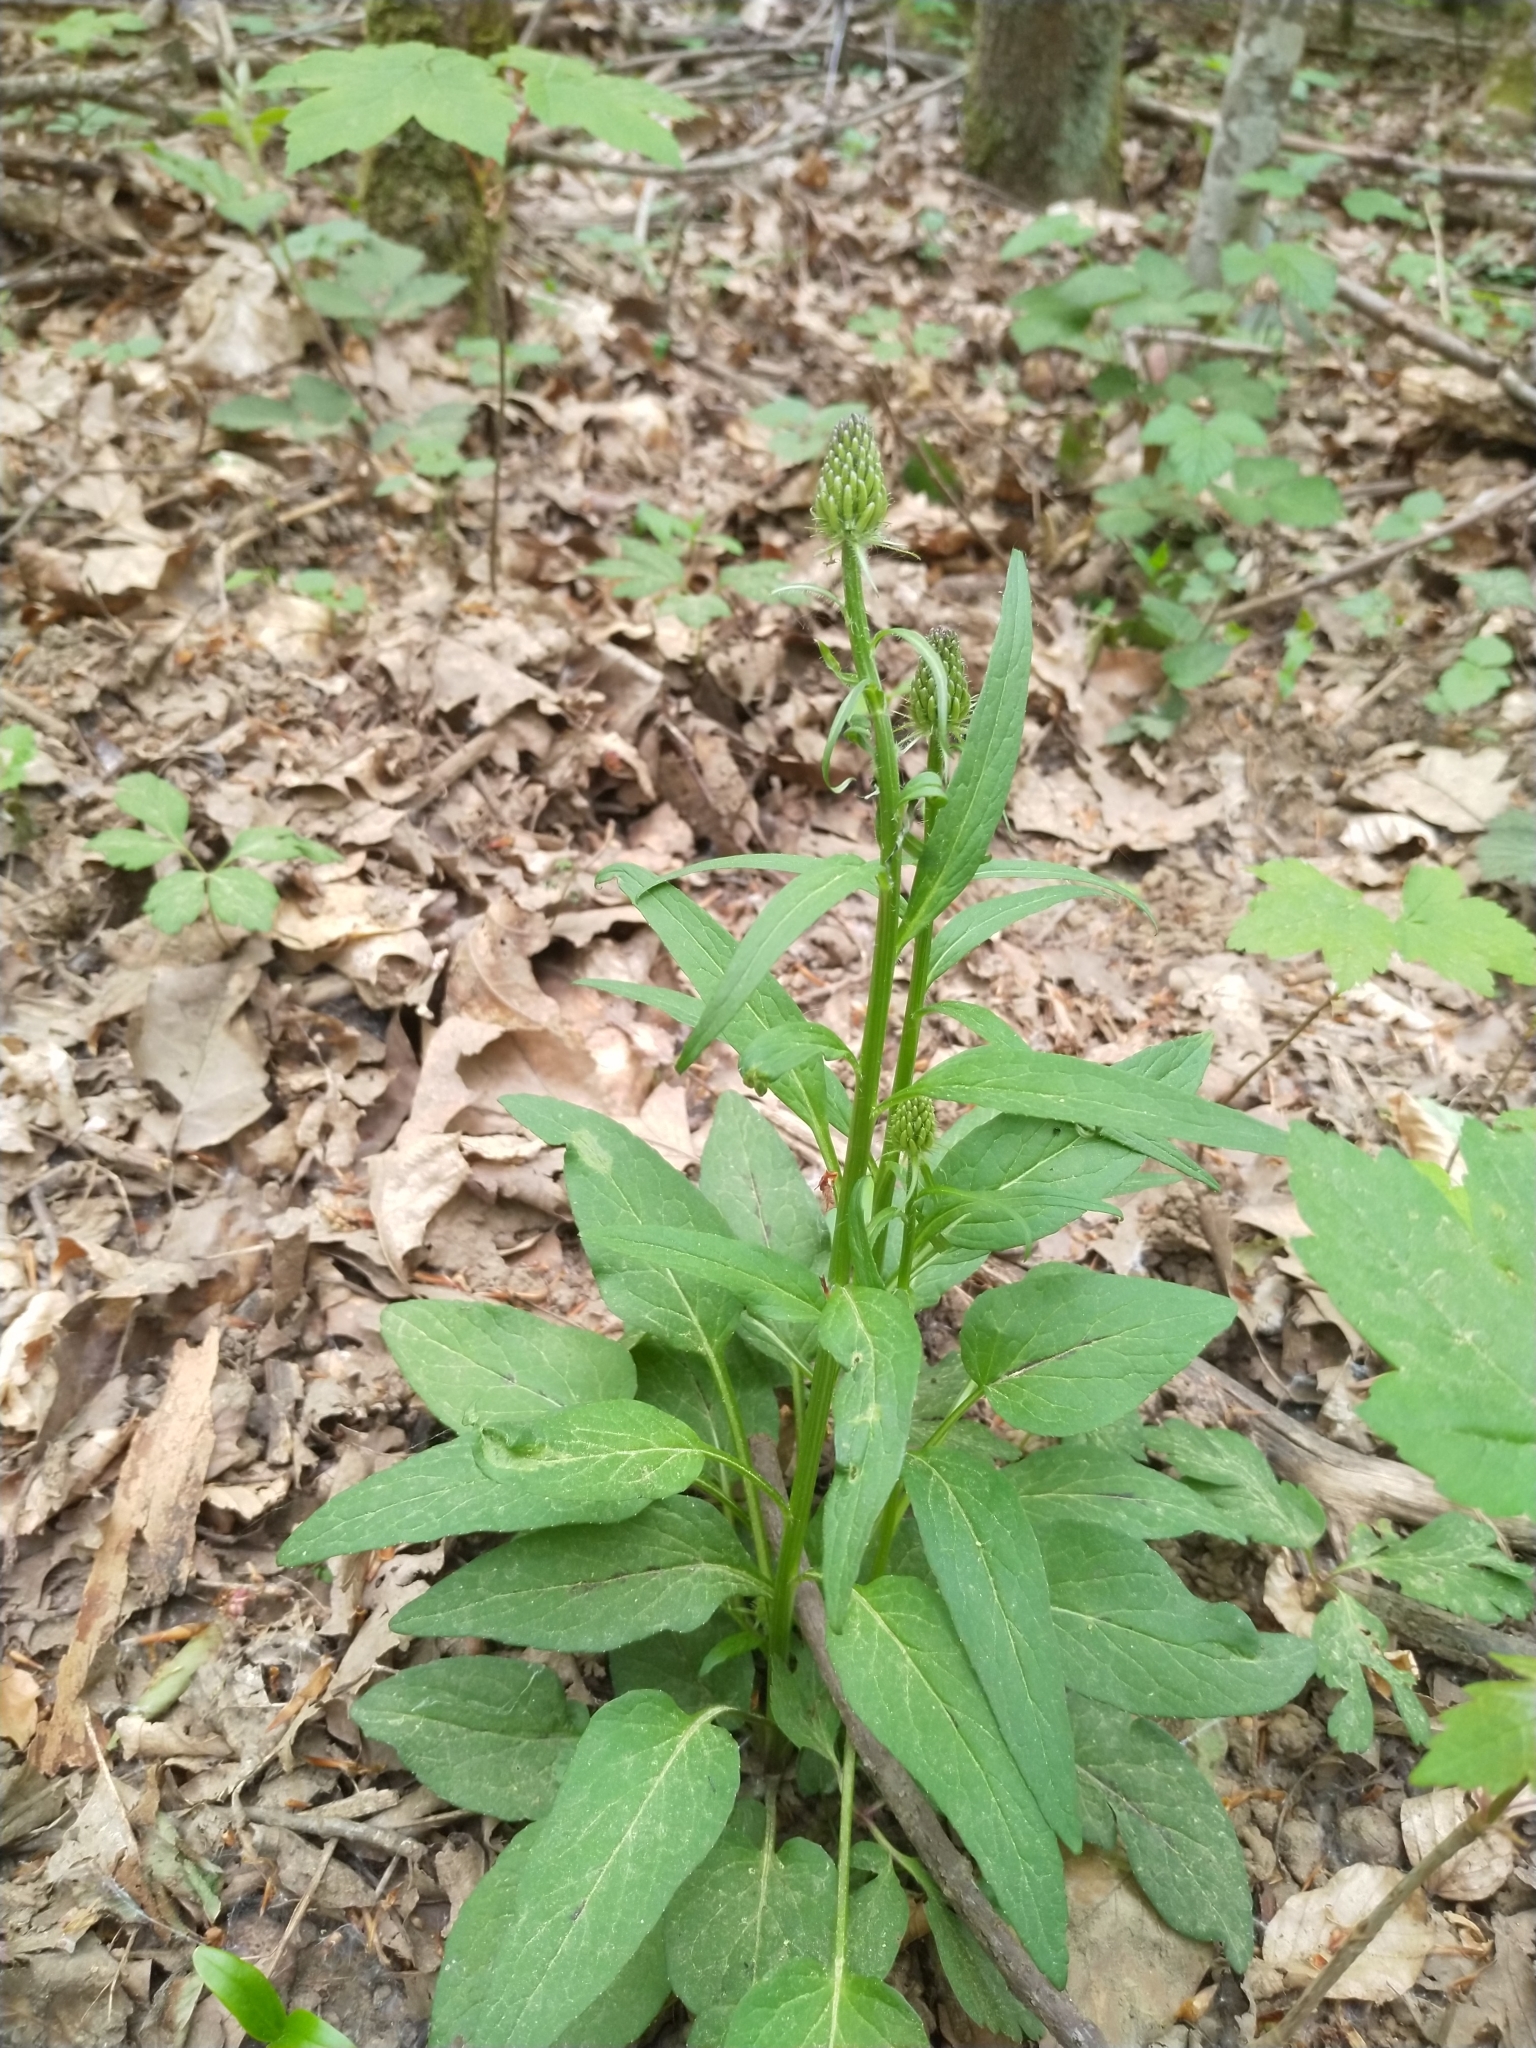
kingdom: Plantae
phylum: Tracheophyta
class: Magnoliopsida
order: Asterales
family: Campanulaceae
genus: Phyteuma
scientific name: Phyteuma spicatum
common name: Spiked rampion
